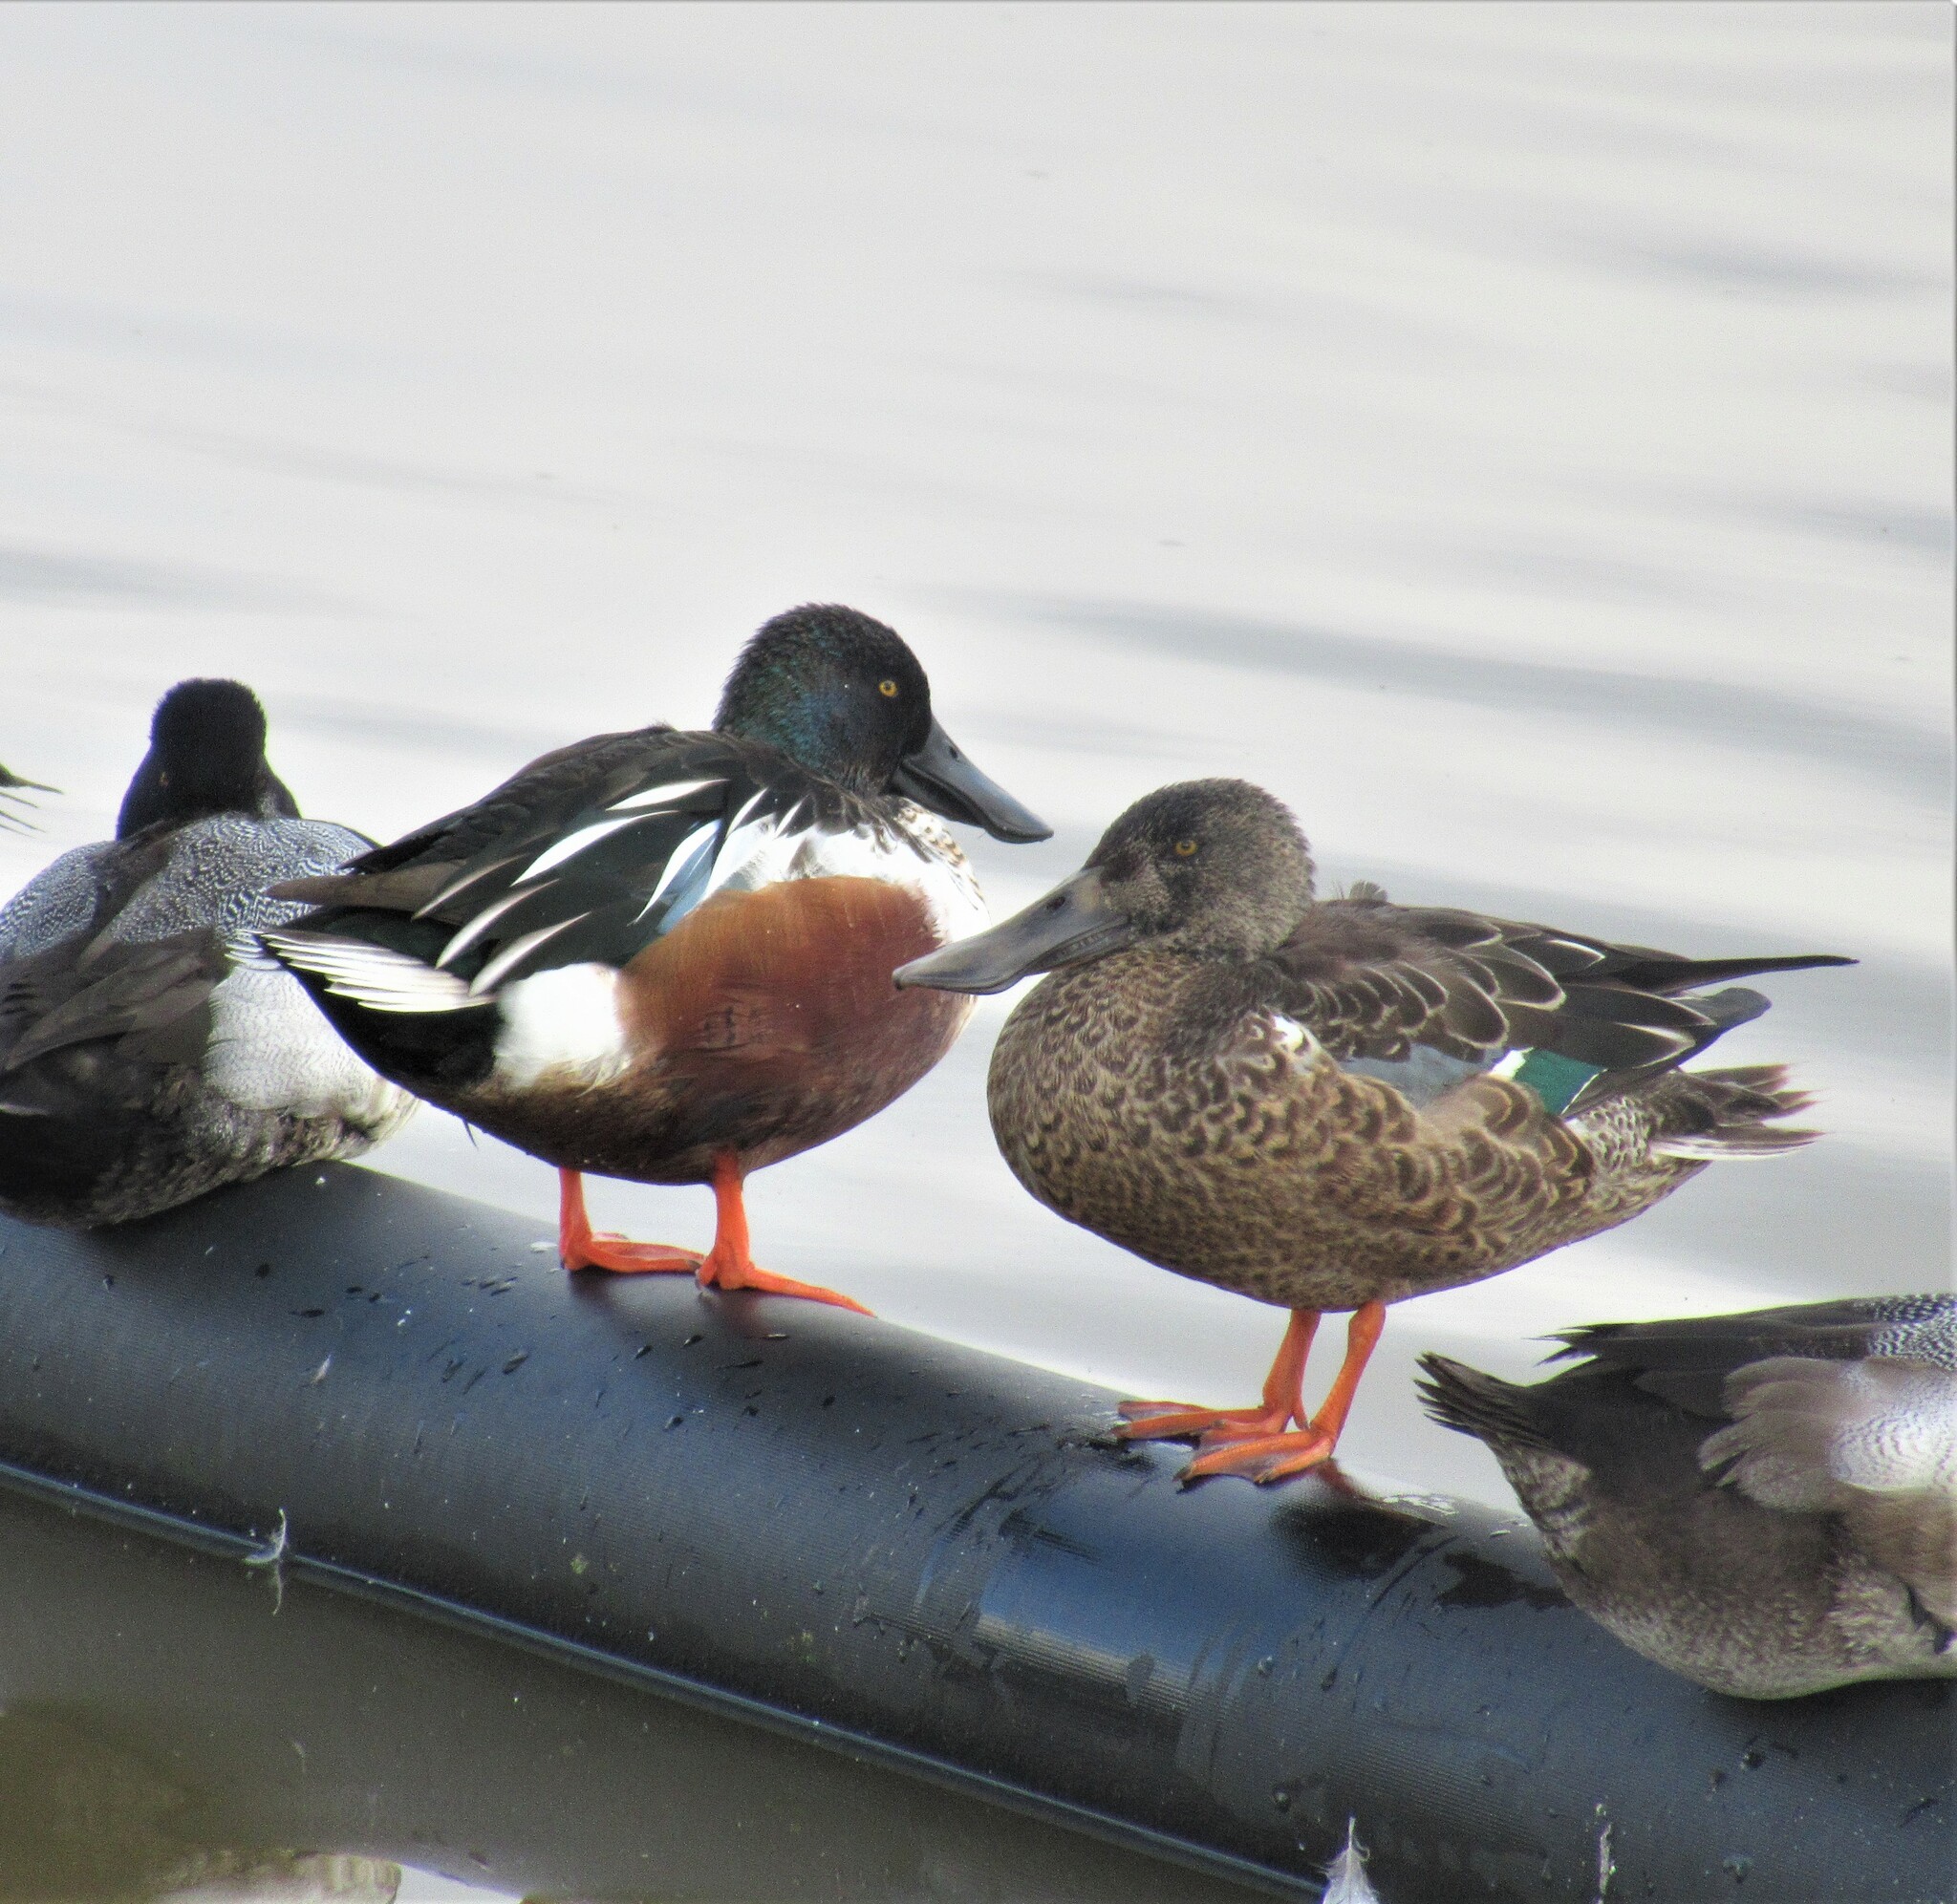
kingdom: Animalia
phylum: Chordata
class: Aves
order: Anseriformes
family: Anatidae
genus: Spatula
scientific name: Spatula clypeata
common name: Northern shoveler
